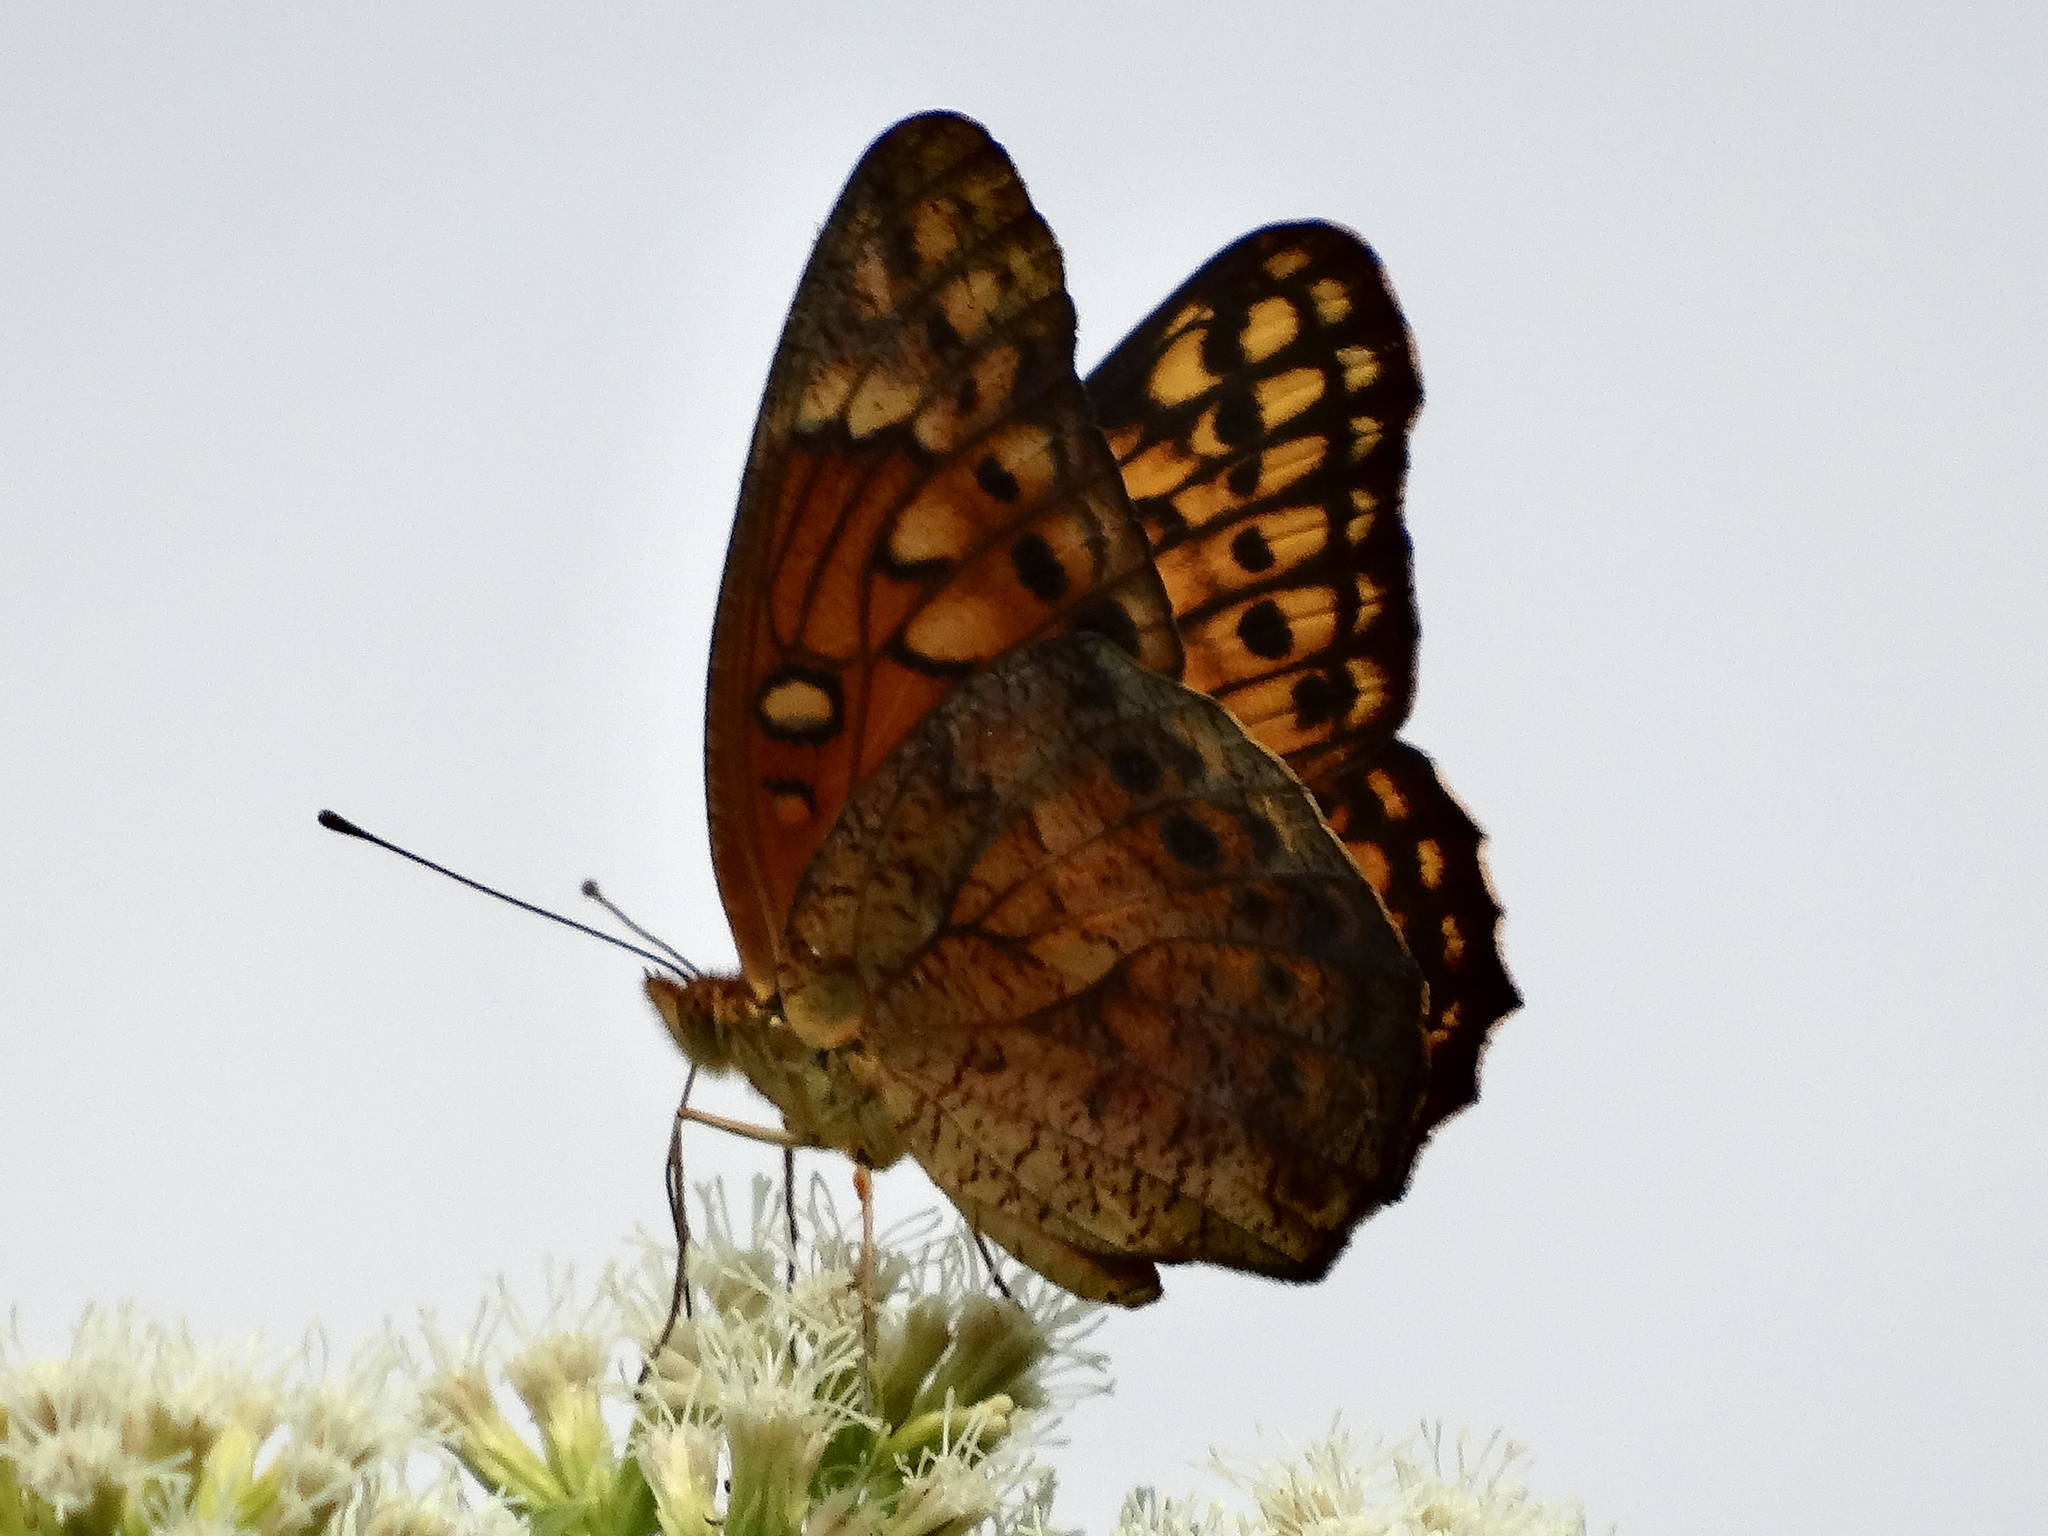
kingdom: Animalia
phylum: Arthropoda
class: Insecta
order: Lepidoptera
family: Nymphalidae
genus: Euptoieta
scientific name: Euptoieta hegesia
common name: Mexican fritillary
